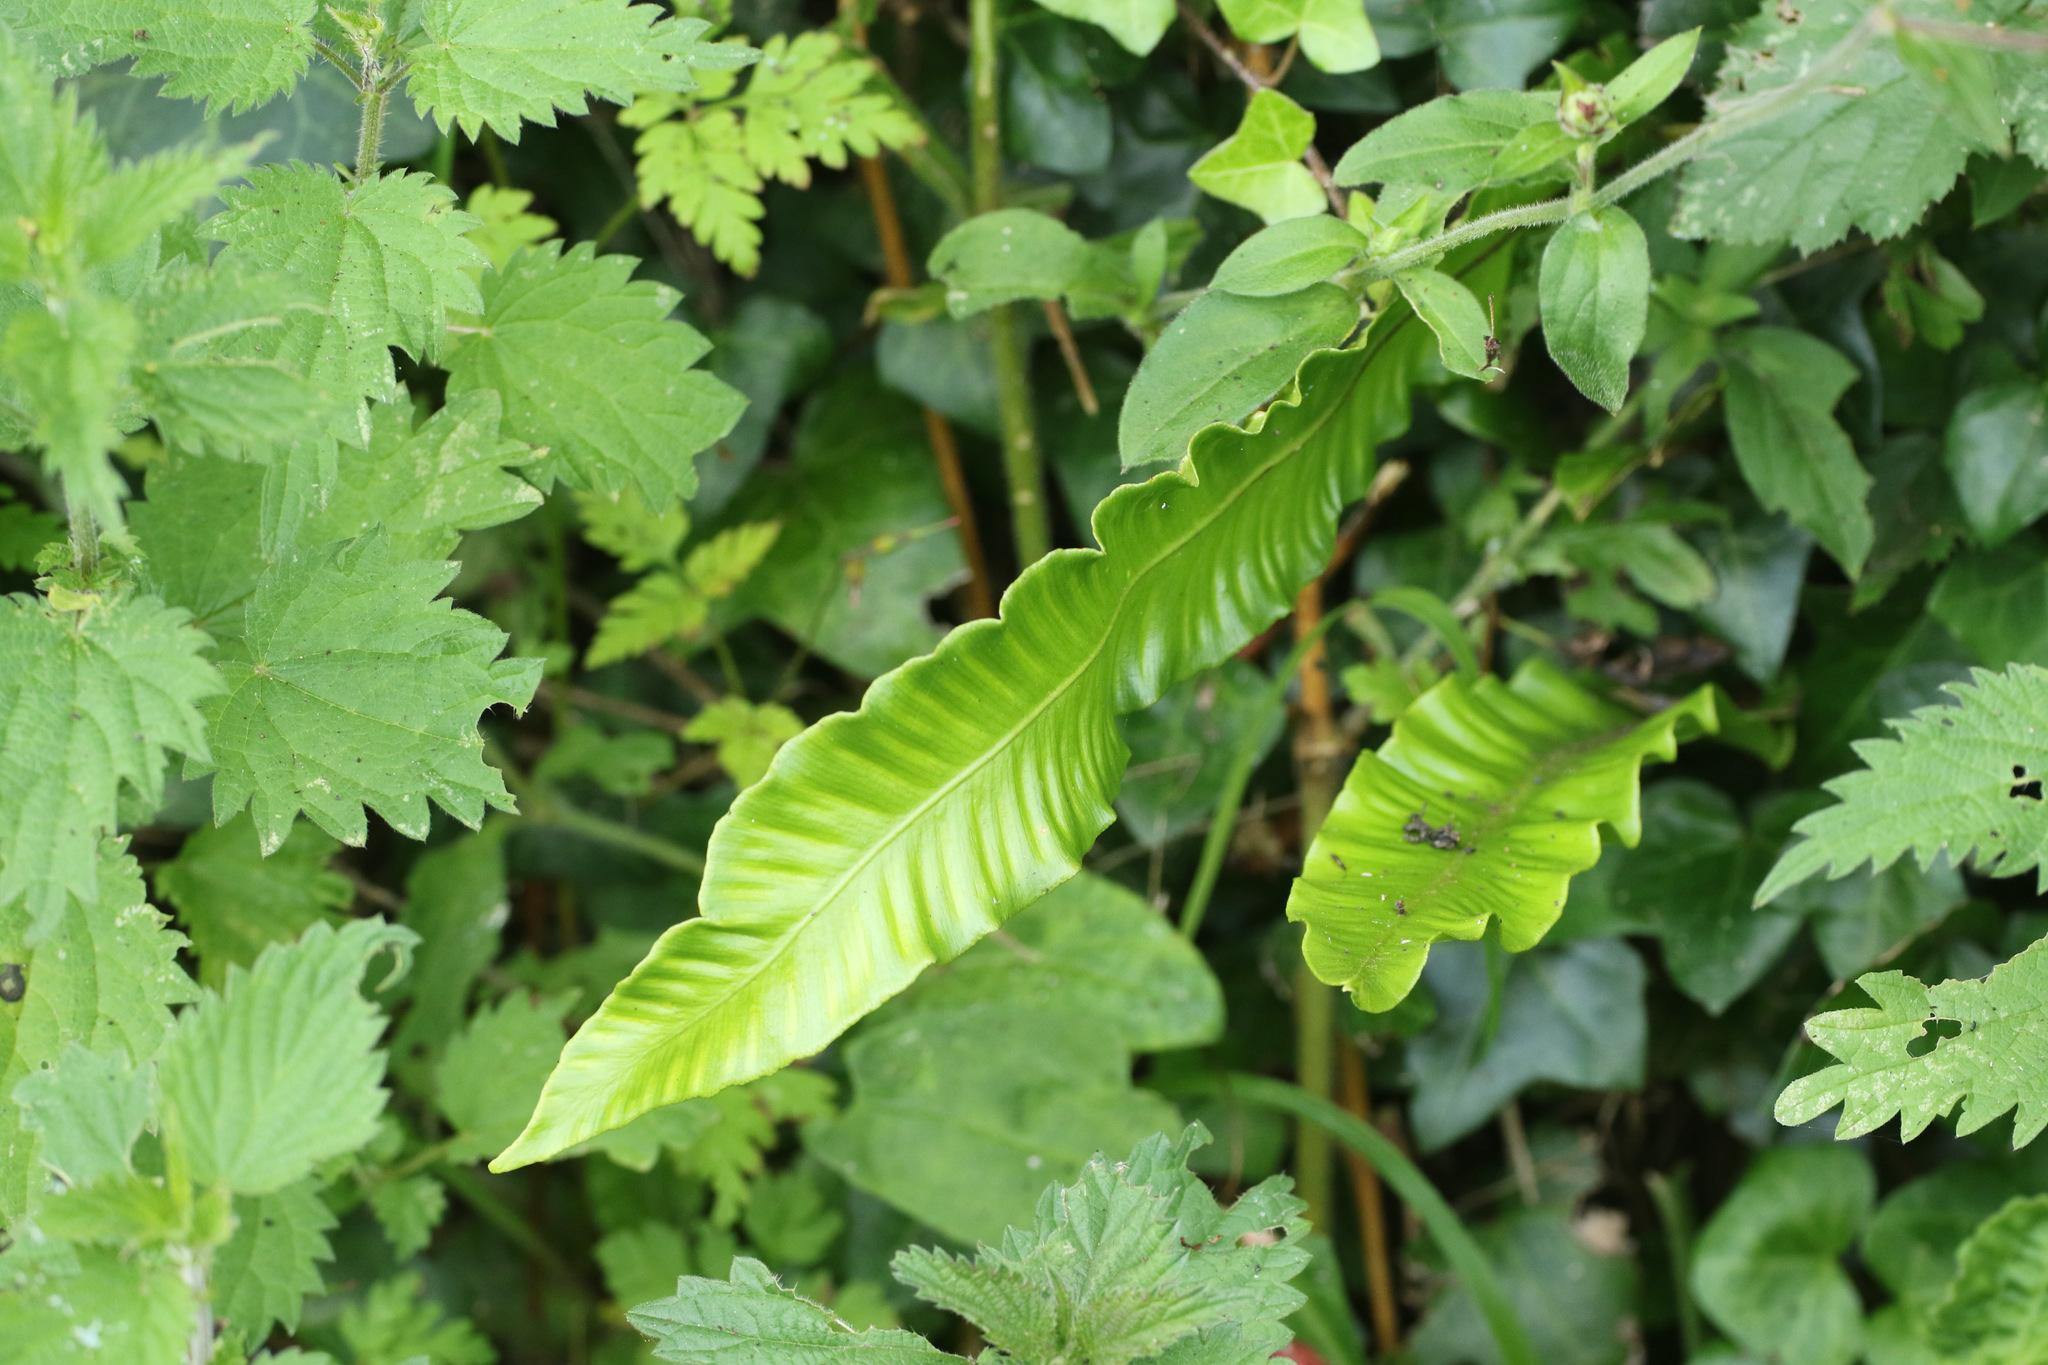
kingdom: Plantae
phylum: Tracheophyta
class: Polypodiopsida
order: Polypodiales
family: Aspleniaceae
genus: Asplenium
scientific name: Asplenium scolopendrium
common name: Hart's-tongue fern
